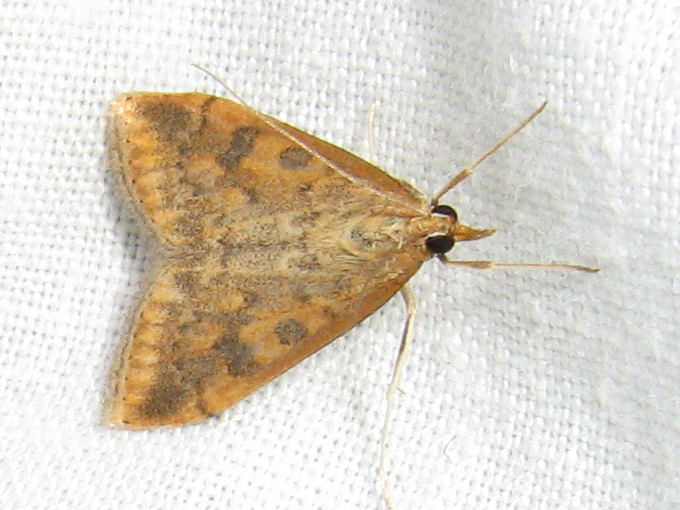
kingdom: Animalia
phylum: Arthropoda
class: Insecta
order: Lepidoptera
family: Crambidae
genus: Udea
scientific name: Udea ferrugalis
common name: Rusty dot
